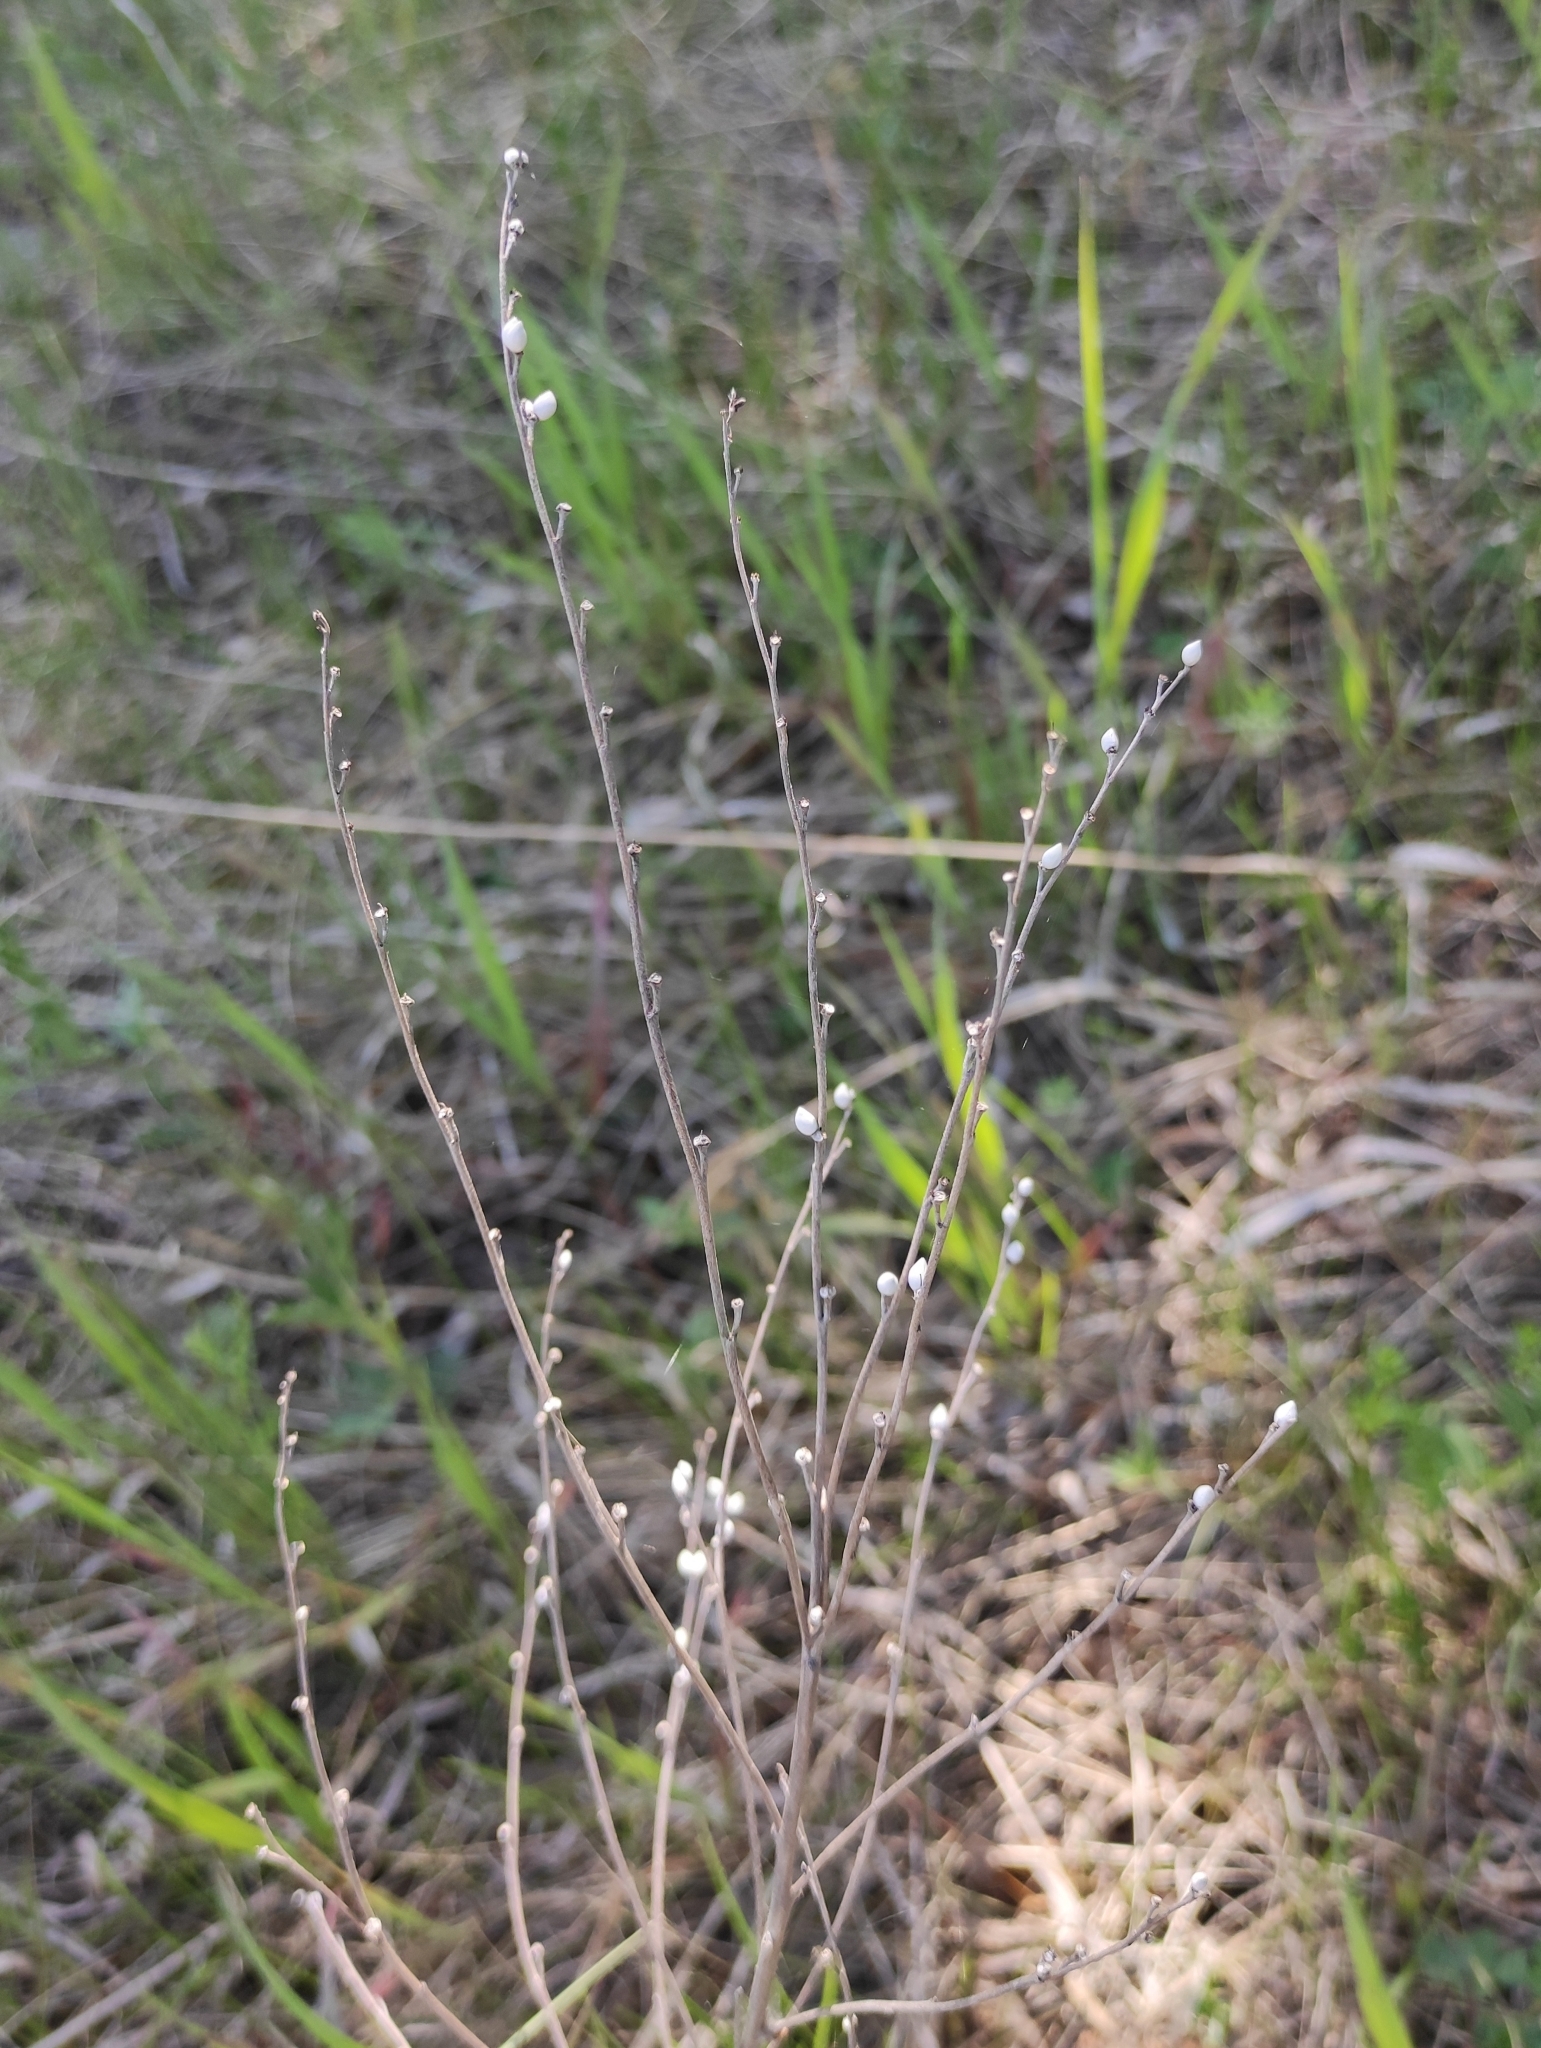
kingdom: Plantae
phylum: Tracheophyta
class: Magnoliopsida
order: Boraginales
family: Boraginaceae
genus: Lithospermum
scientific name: Lithospermum officinale
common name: Common gromwell
